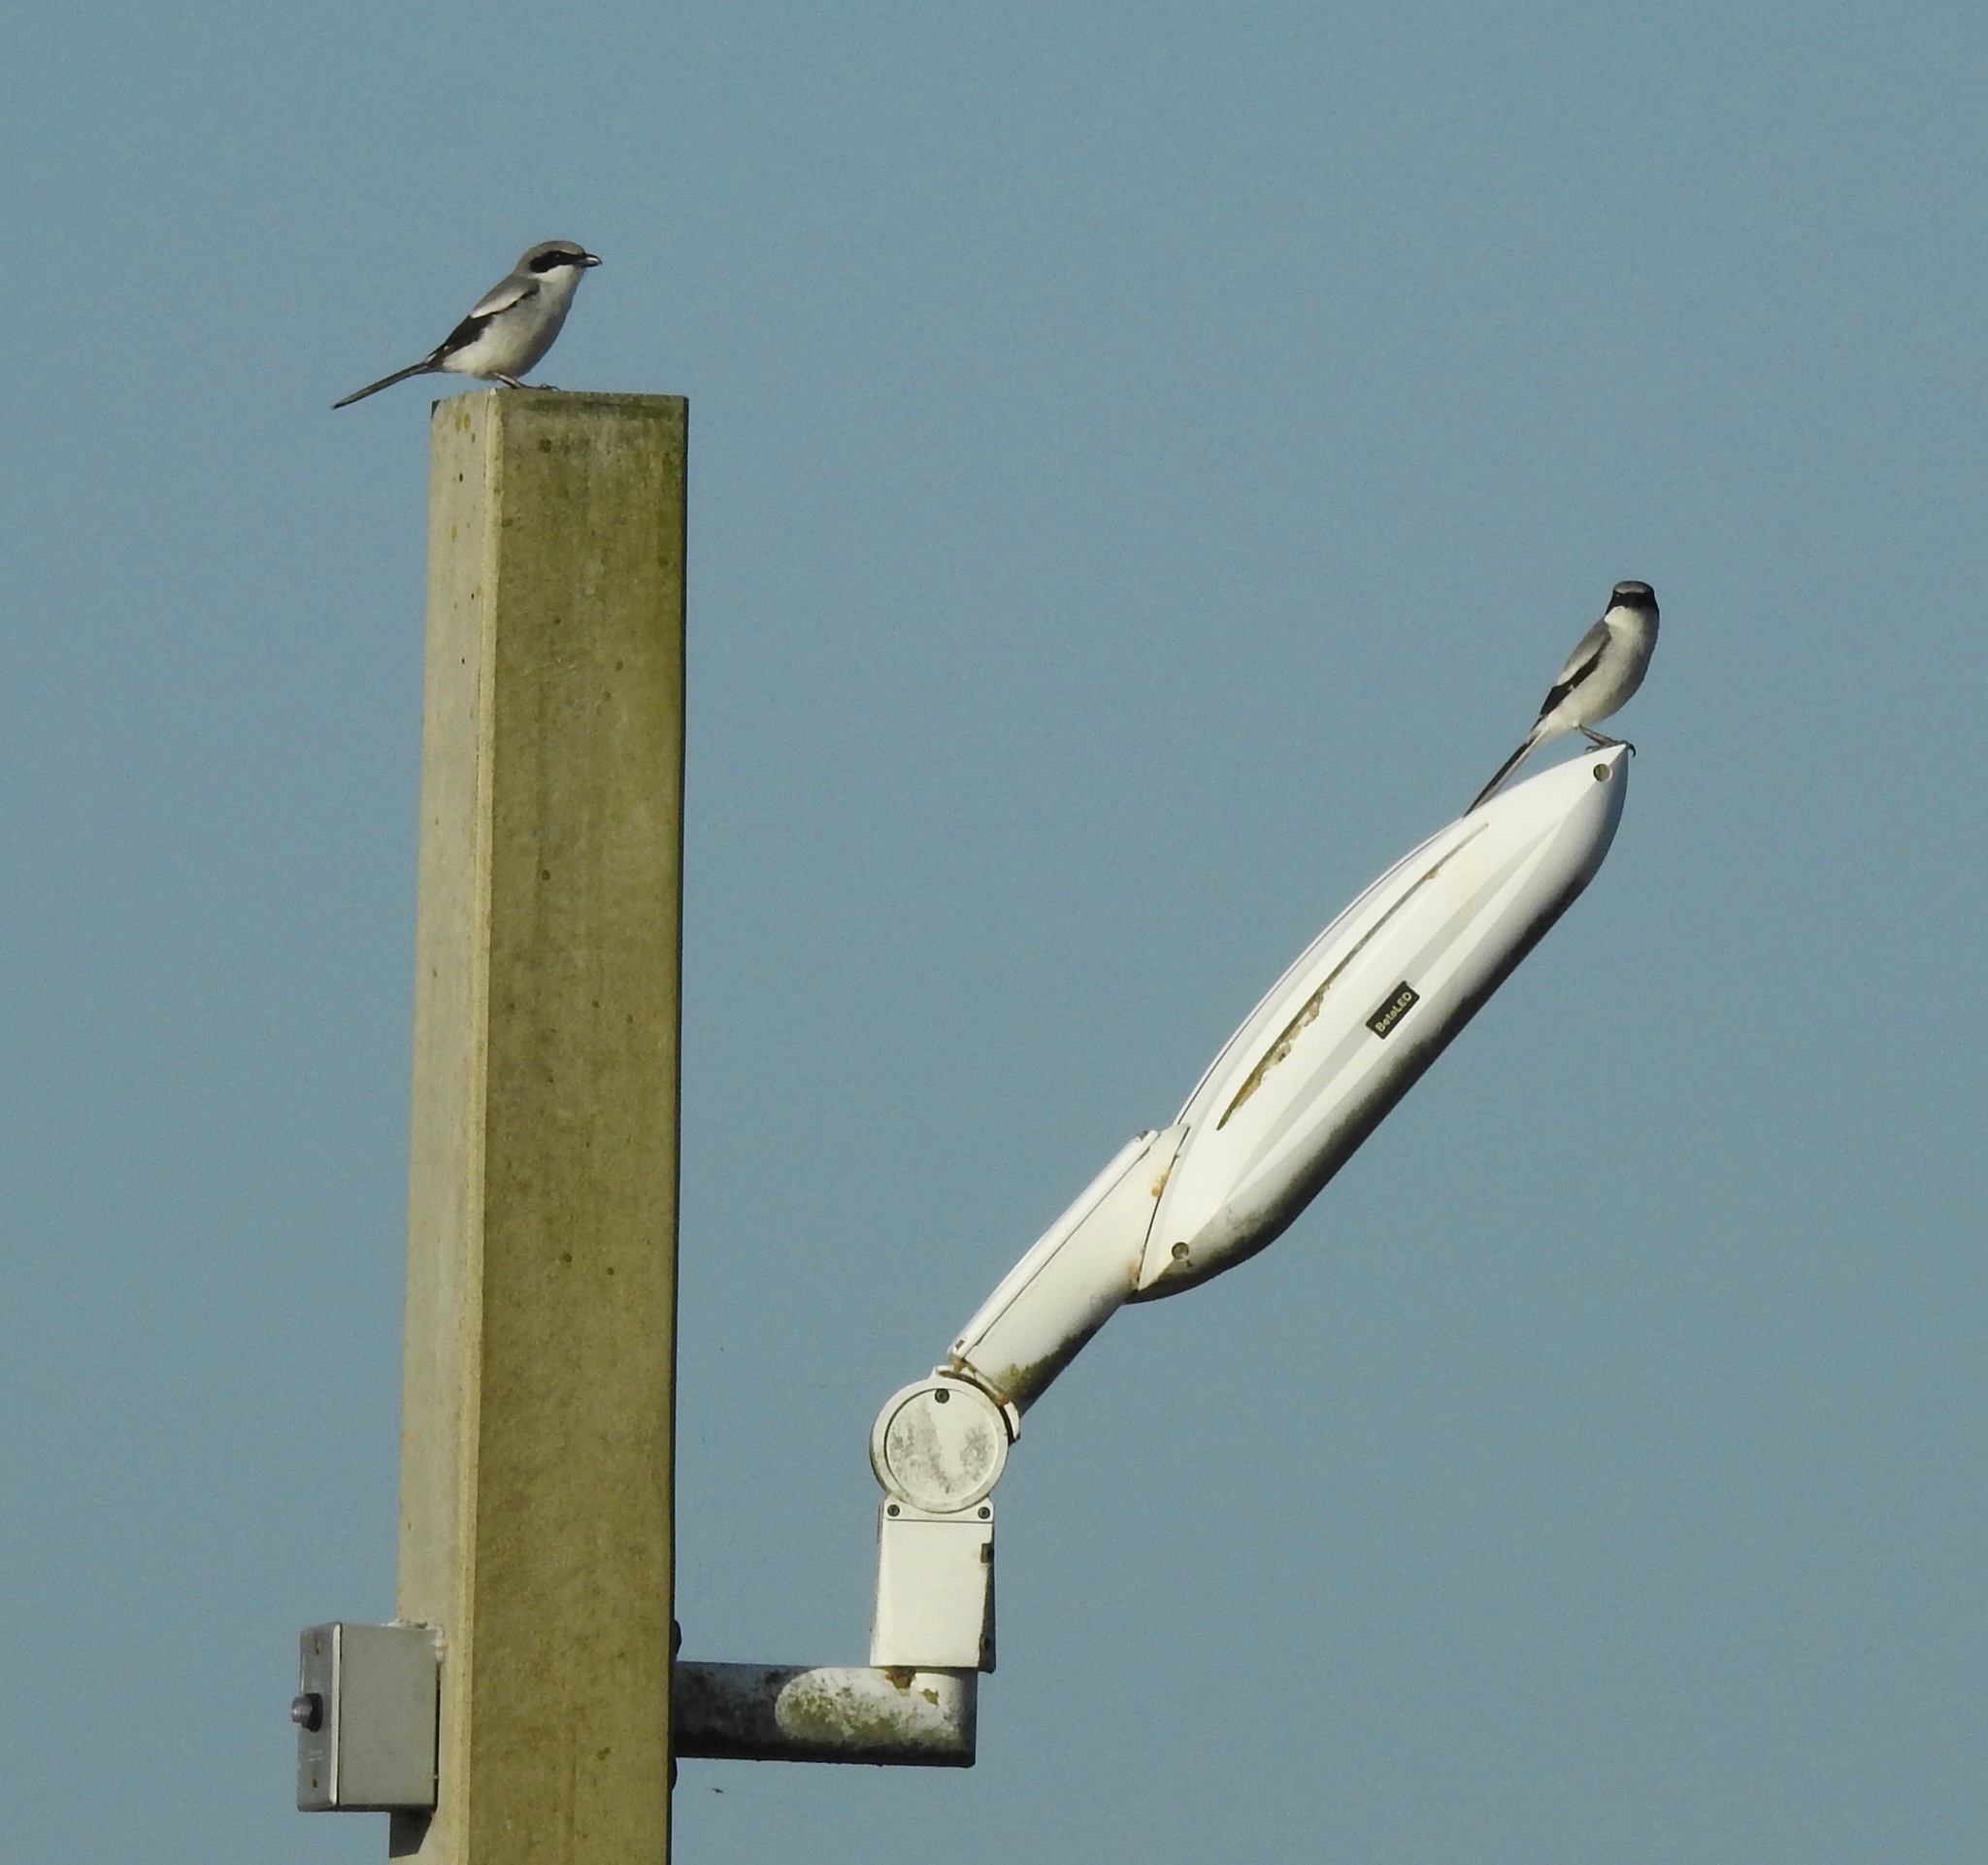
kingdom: Animalia
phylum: Chordata
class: Aves
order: Passeriformes
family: Laniidae
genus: Lanius
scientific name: Lanius ludovicianus
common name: Loggerhead shrike
